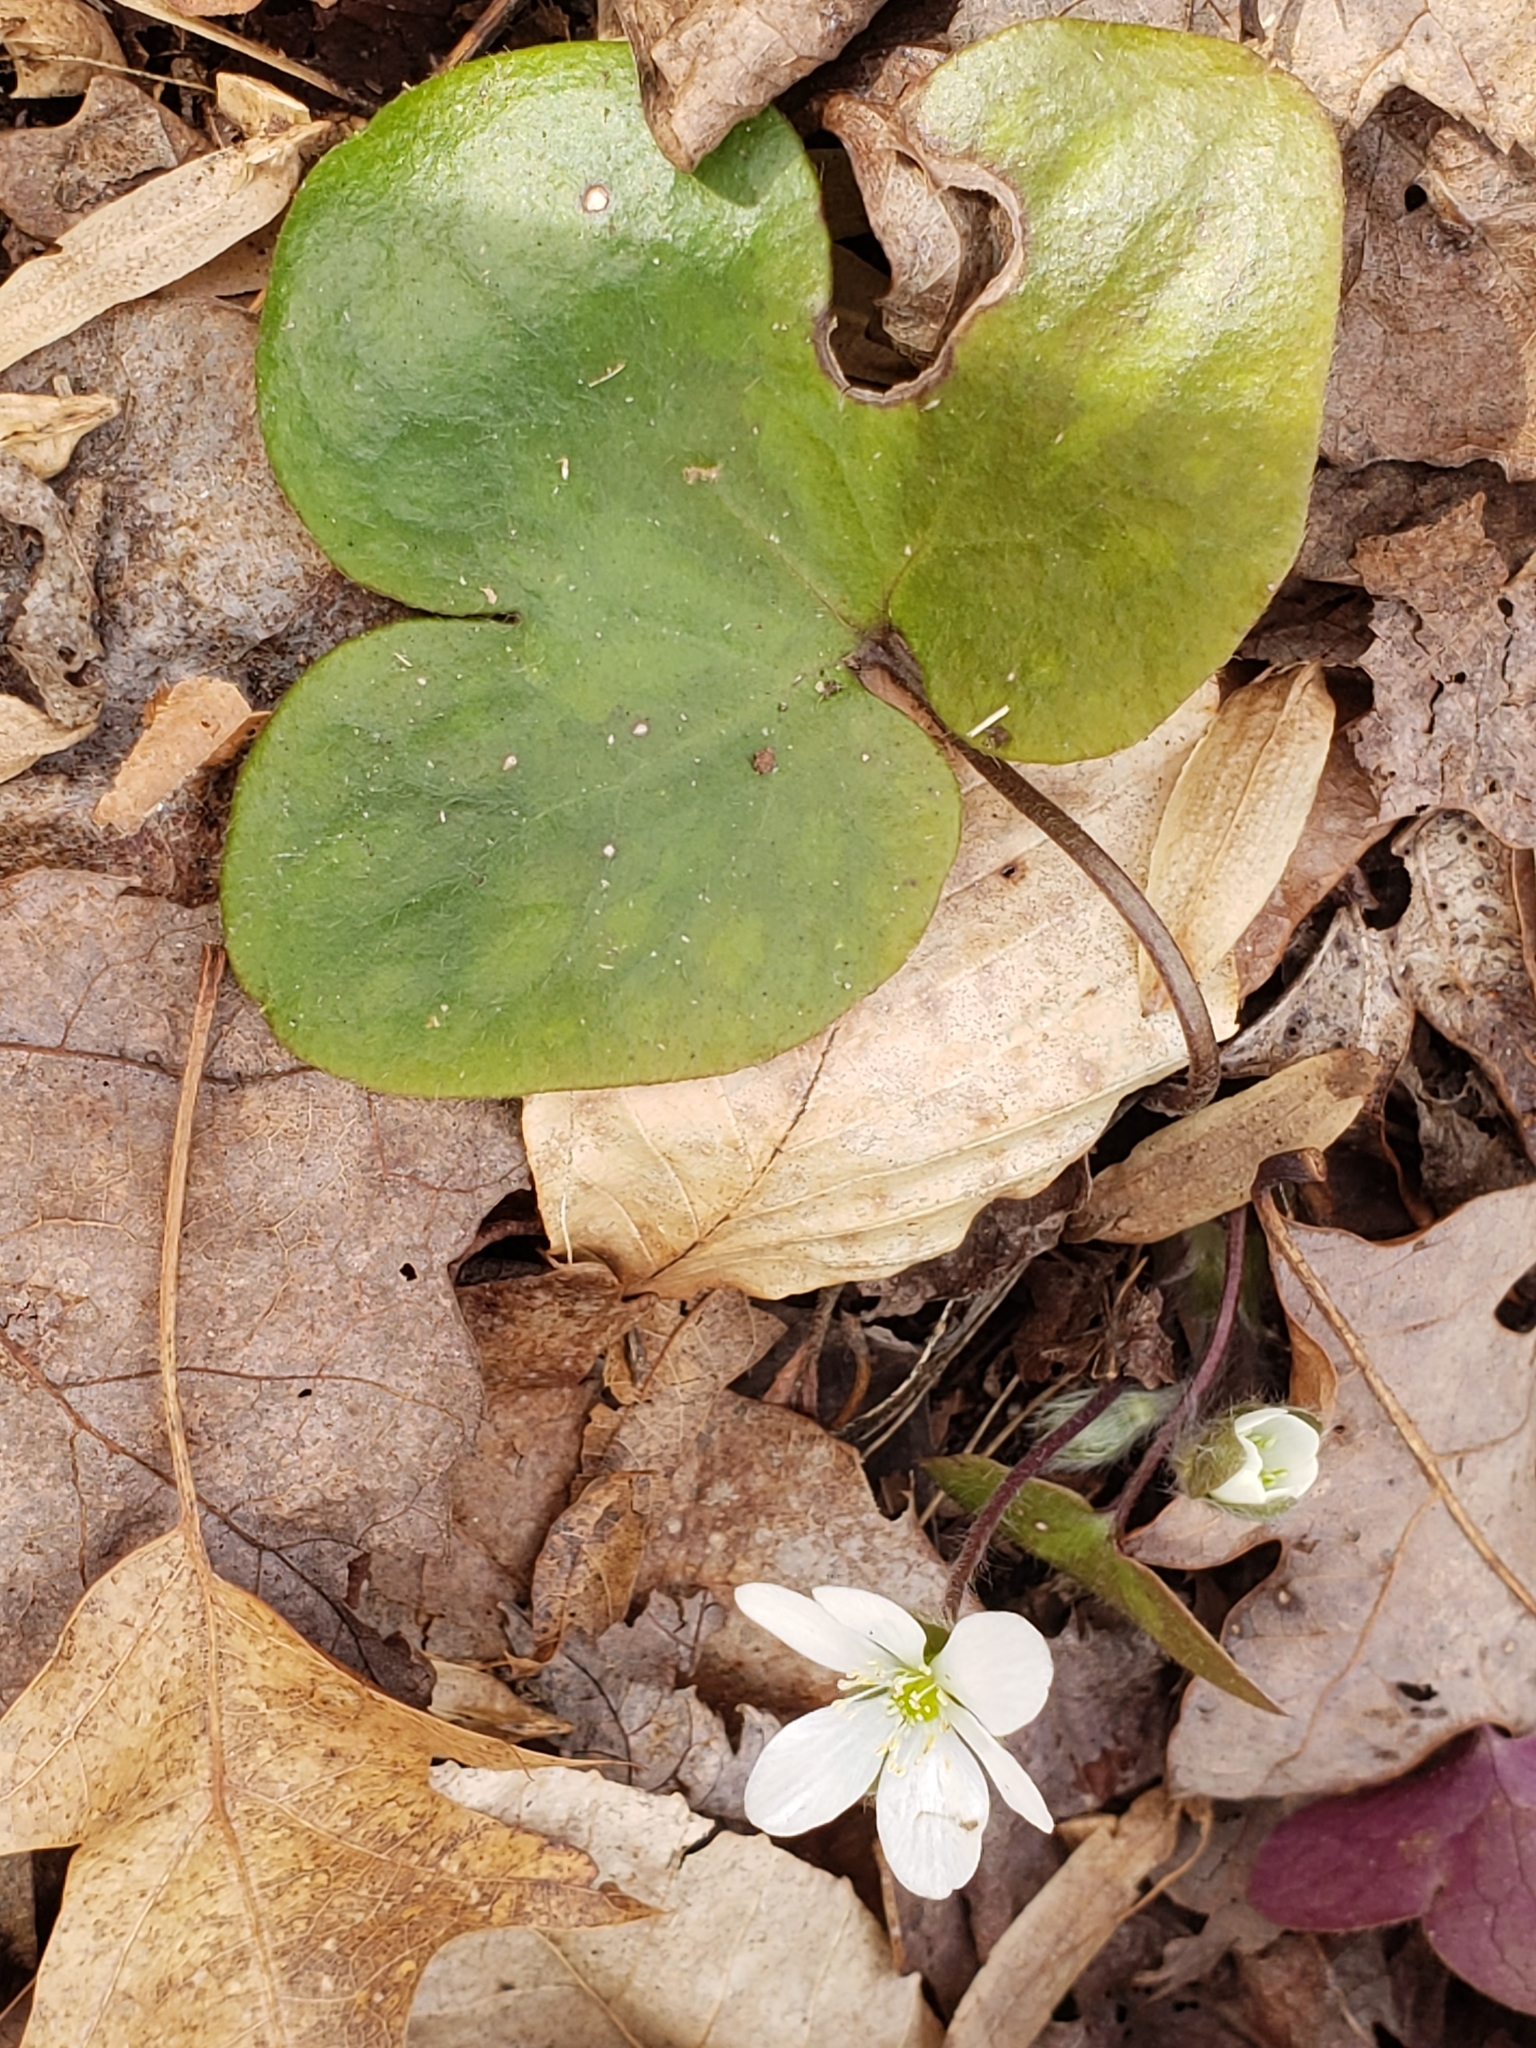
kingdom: Plantae
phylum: Tracheophyta
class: Magnoliopsida
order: Ranunculales
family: Ranunculaceae
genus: Hepatica
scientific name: Hepatica americana
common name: American hepatica
